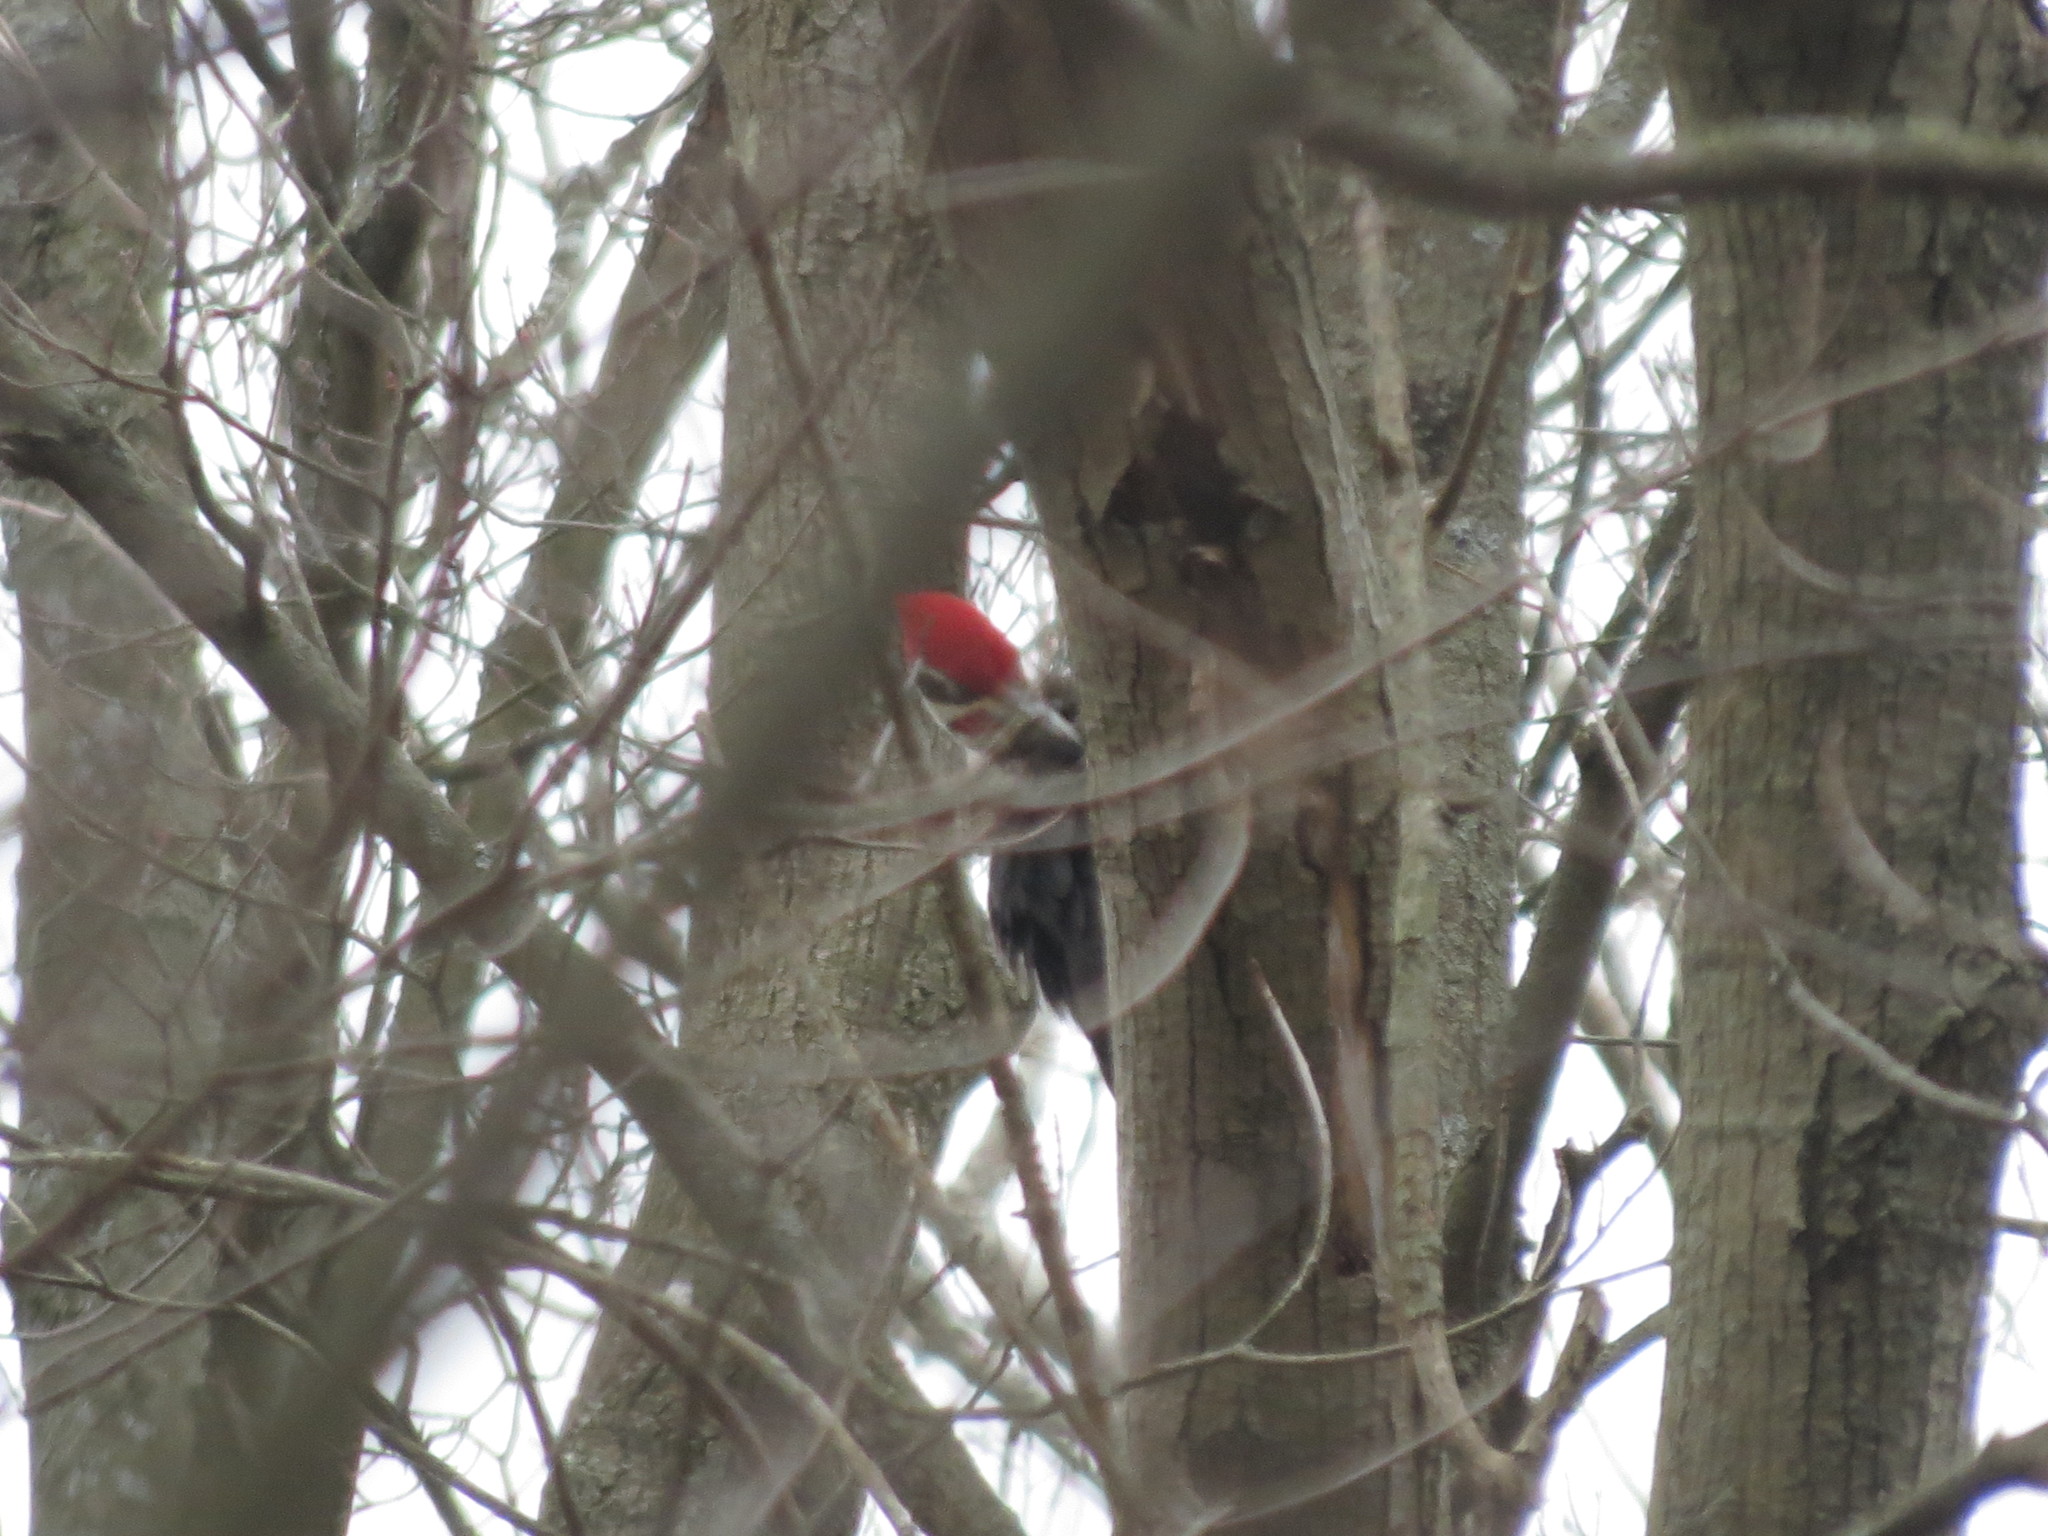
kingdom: Animalia
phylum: Chordata
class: Aves
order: Piciformes
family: Picidae
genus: Dryocopus
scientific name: Dryocopus pileatus
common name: Pileated woodpecker
